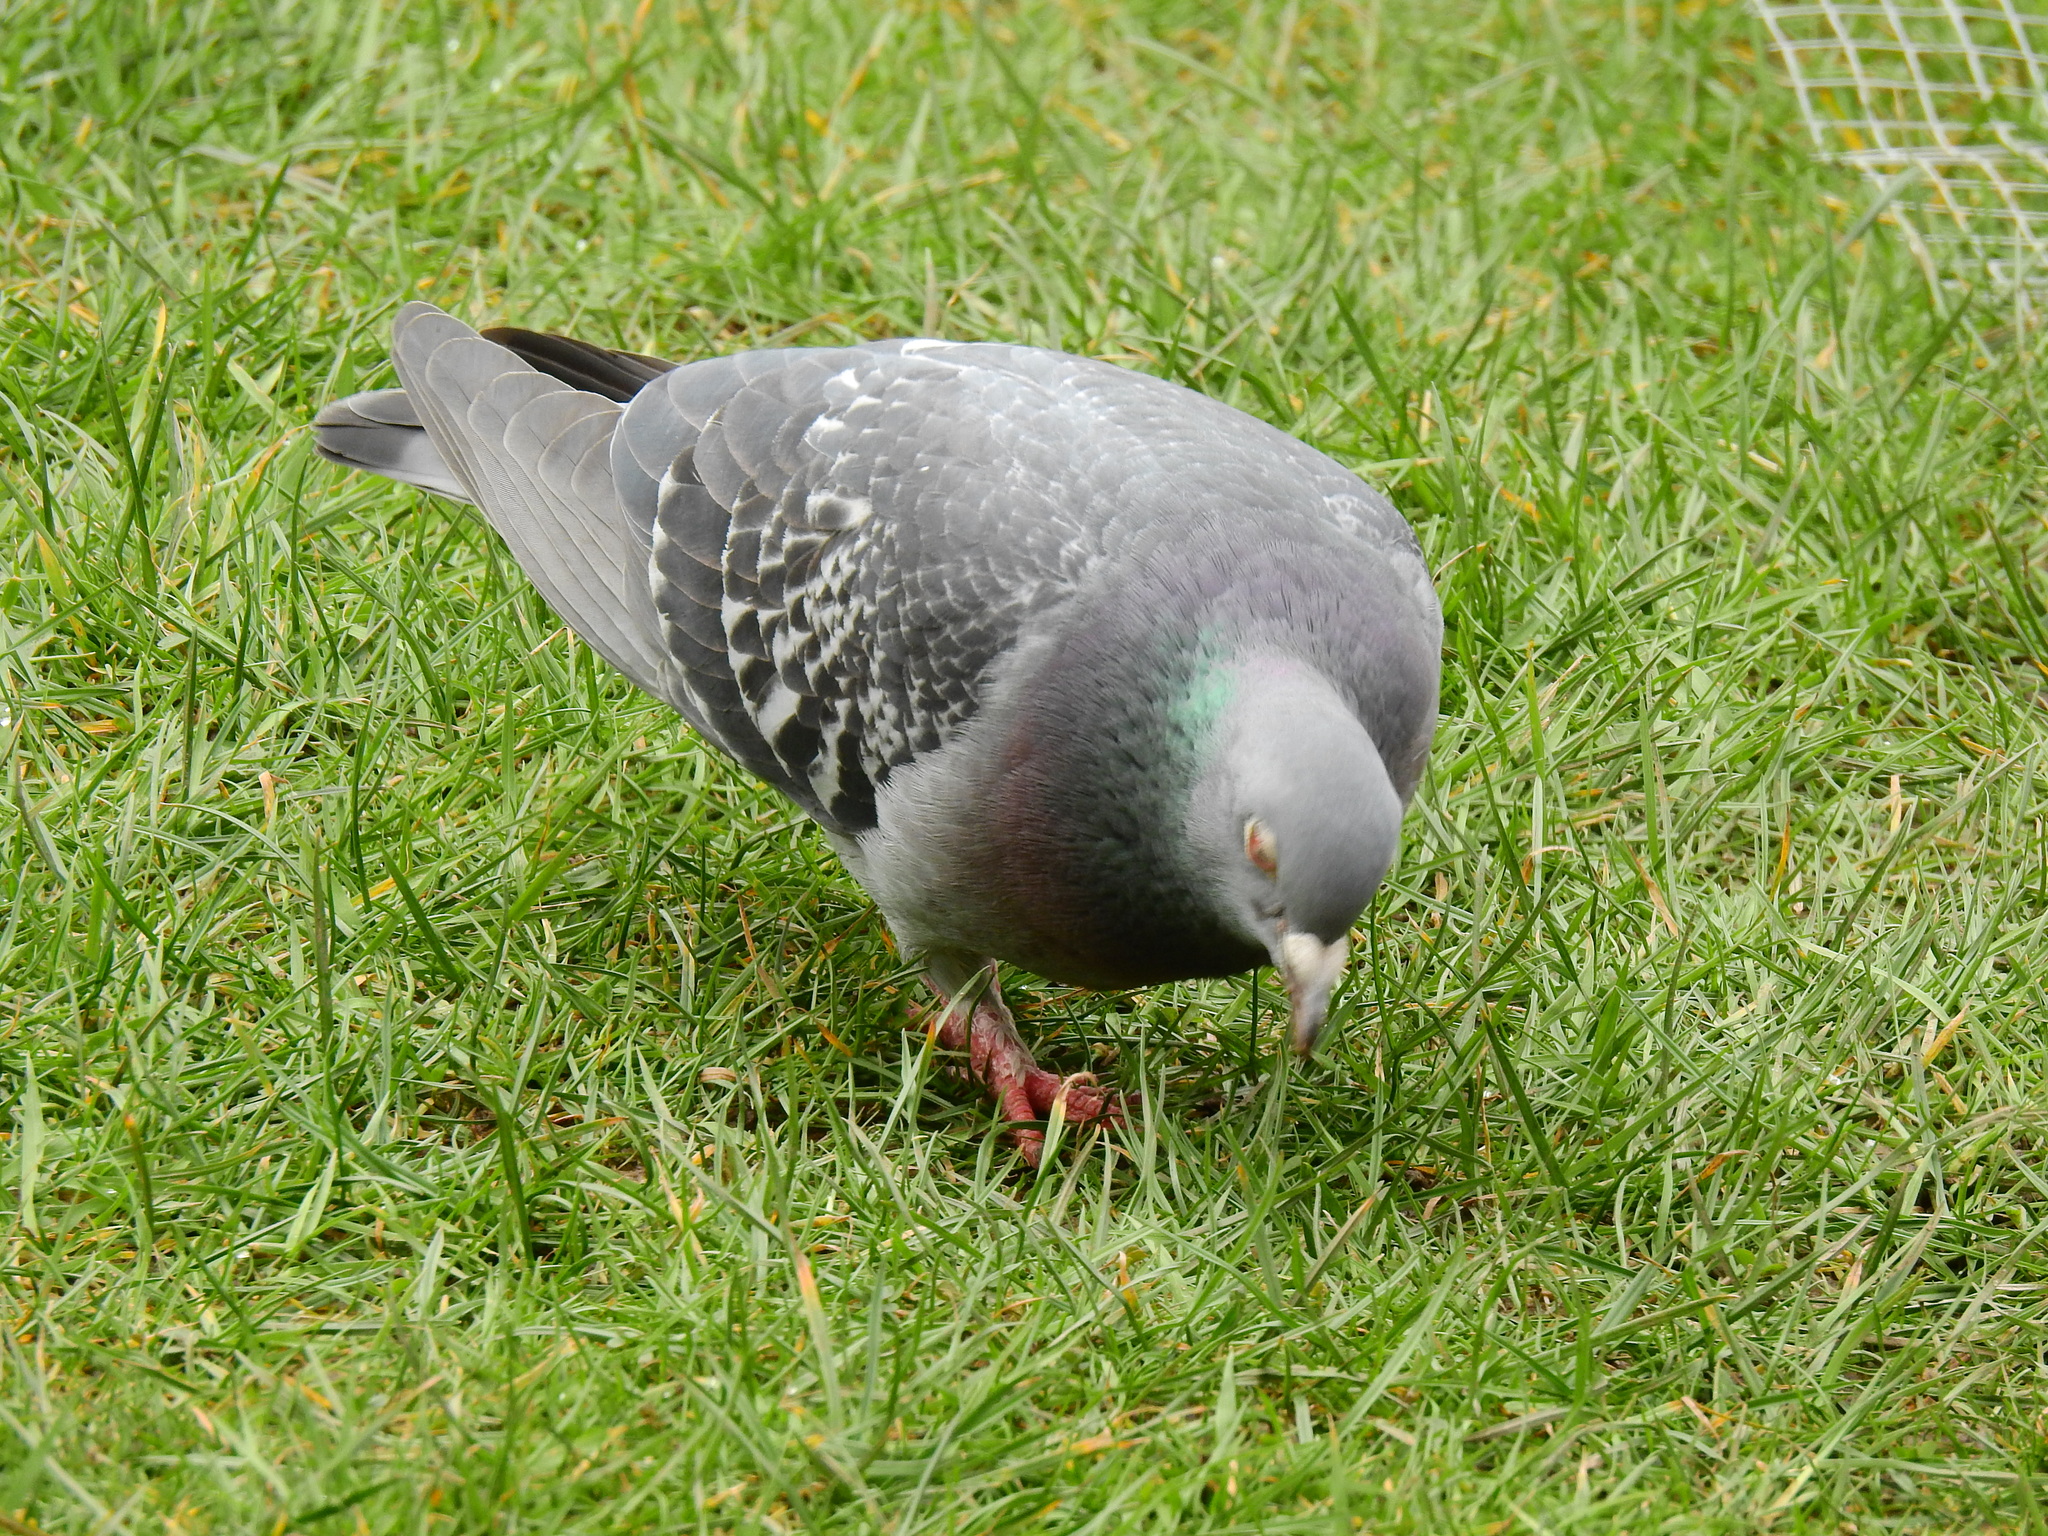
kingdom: Animalia
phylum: Chordata
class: Aves
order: Columbiformes
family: Columbidae
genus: Columba
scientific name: Columba livia
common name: Rock pigeon
